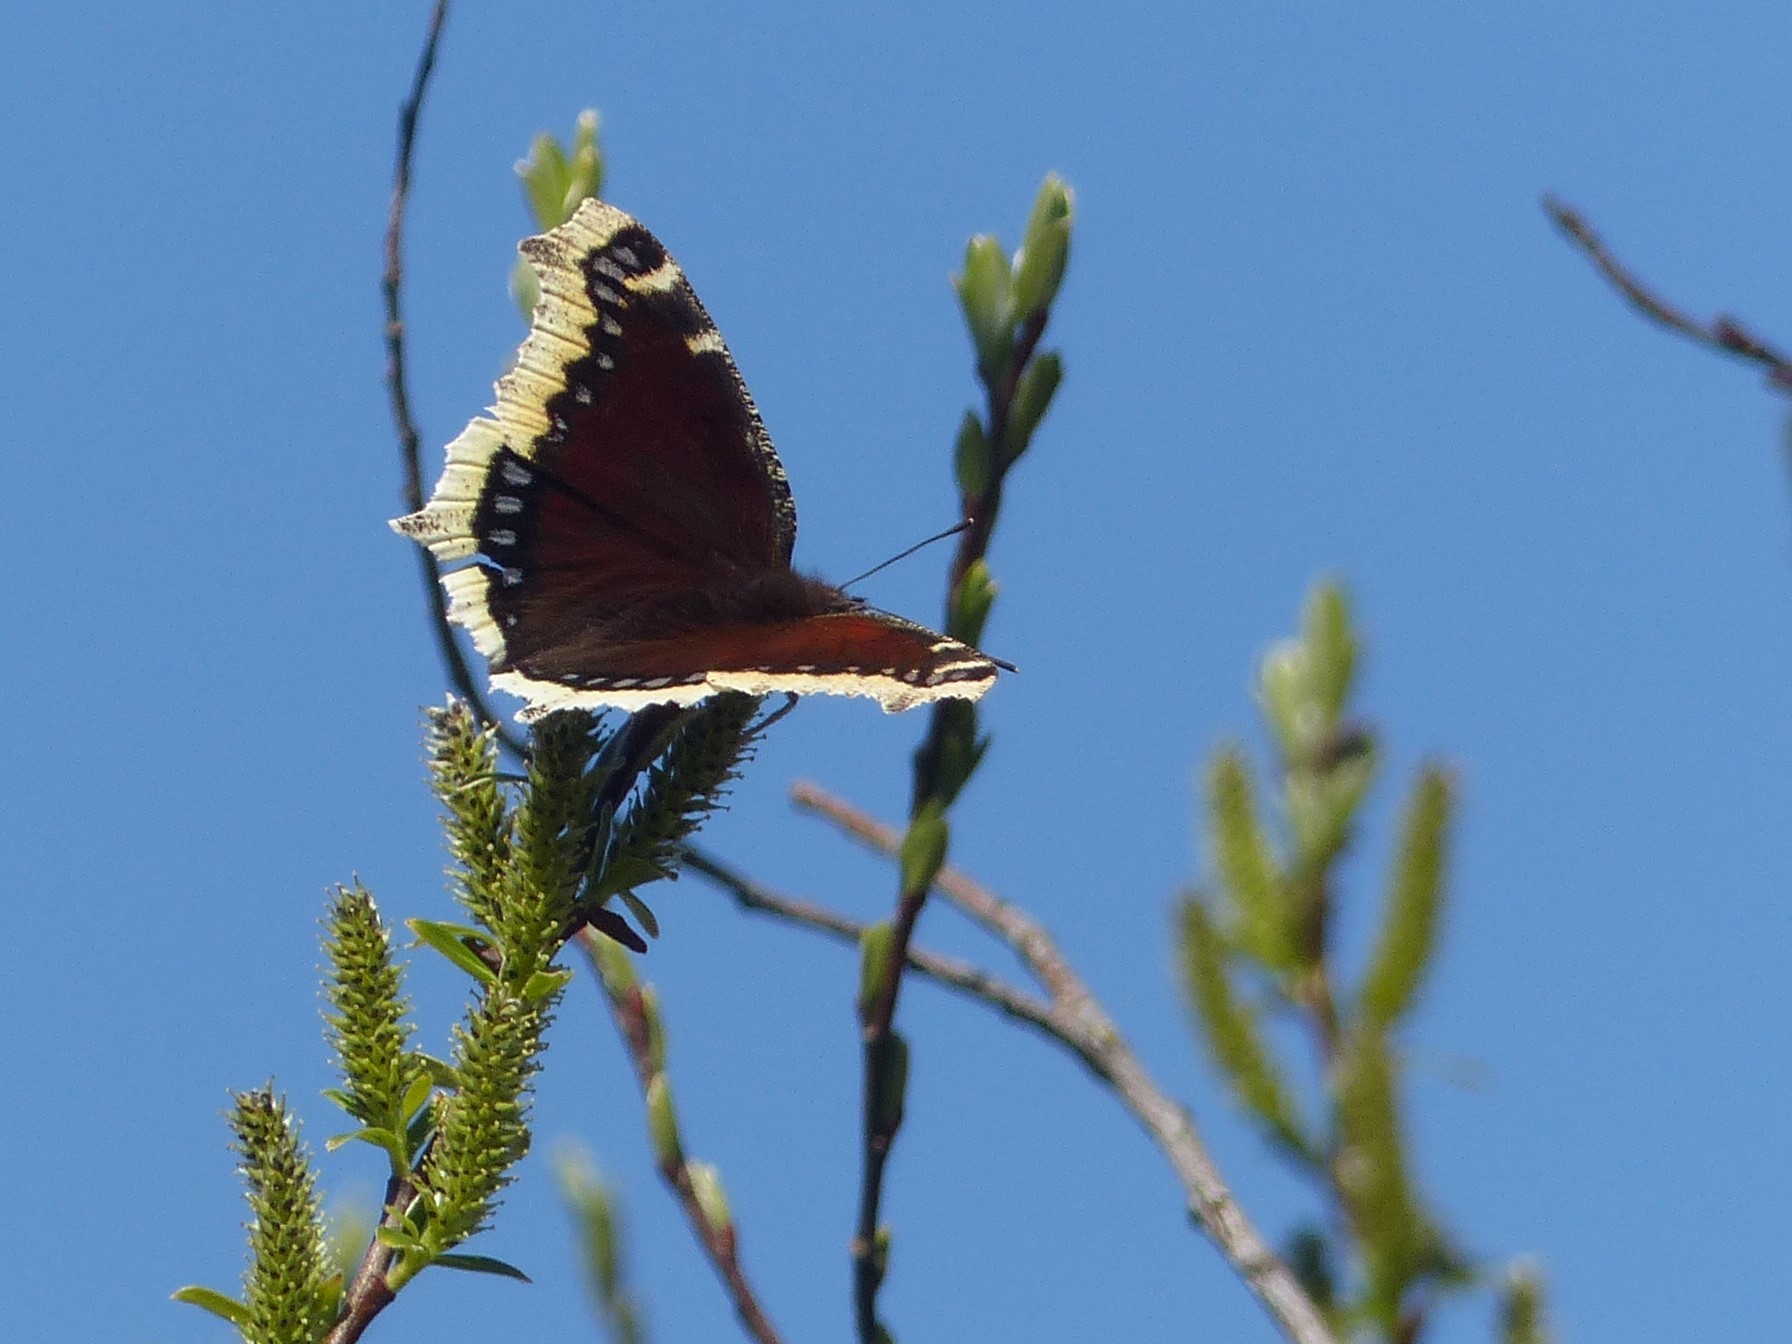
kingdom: Animalia
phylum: Arthropoda
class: Insecta
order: Lepidoptera
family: Nymphalidae
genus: Nymphalis
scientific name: Nymphalis antiopa
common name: Camberwell beauty
